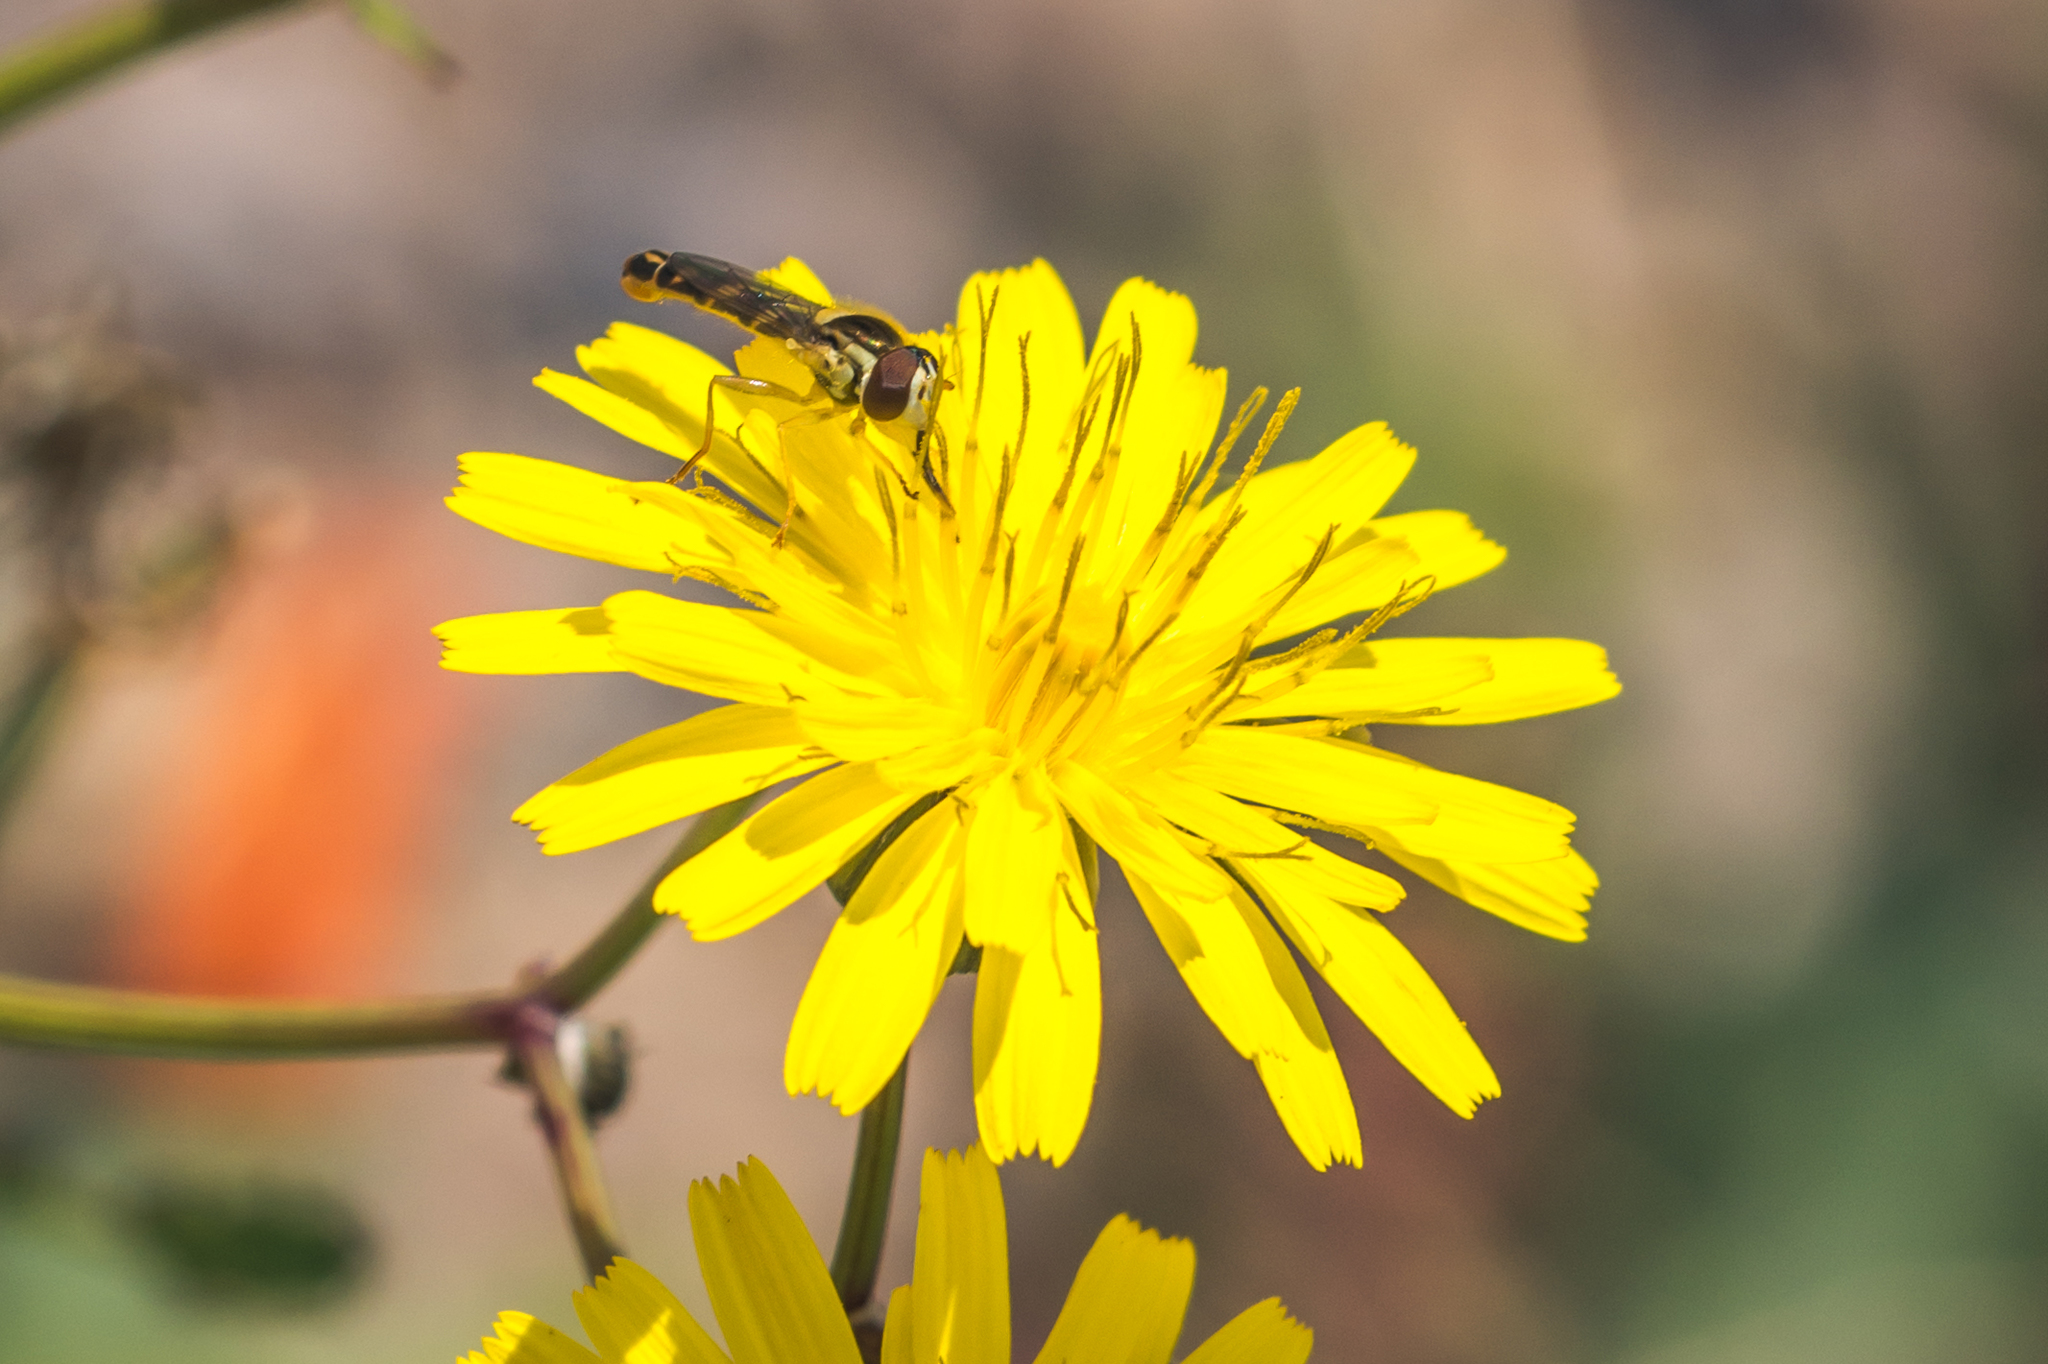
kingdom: Animalia
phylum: Arthropoda
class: Insecta
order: Diptera
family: Syrphidae
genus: Sphaerophoria
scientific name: Sphaerophoria scripta
